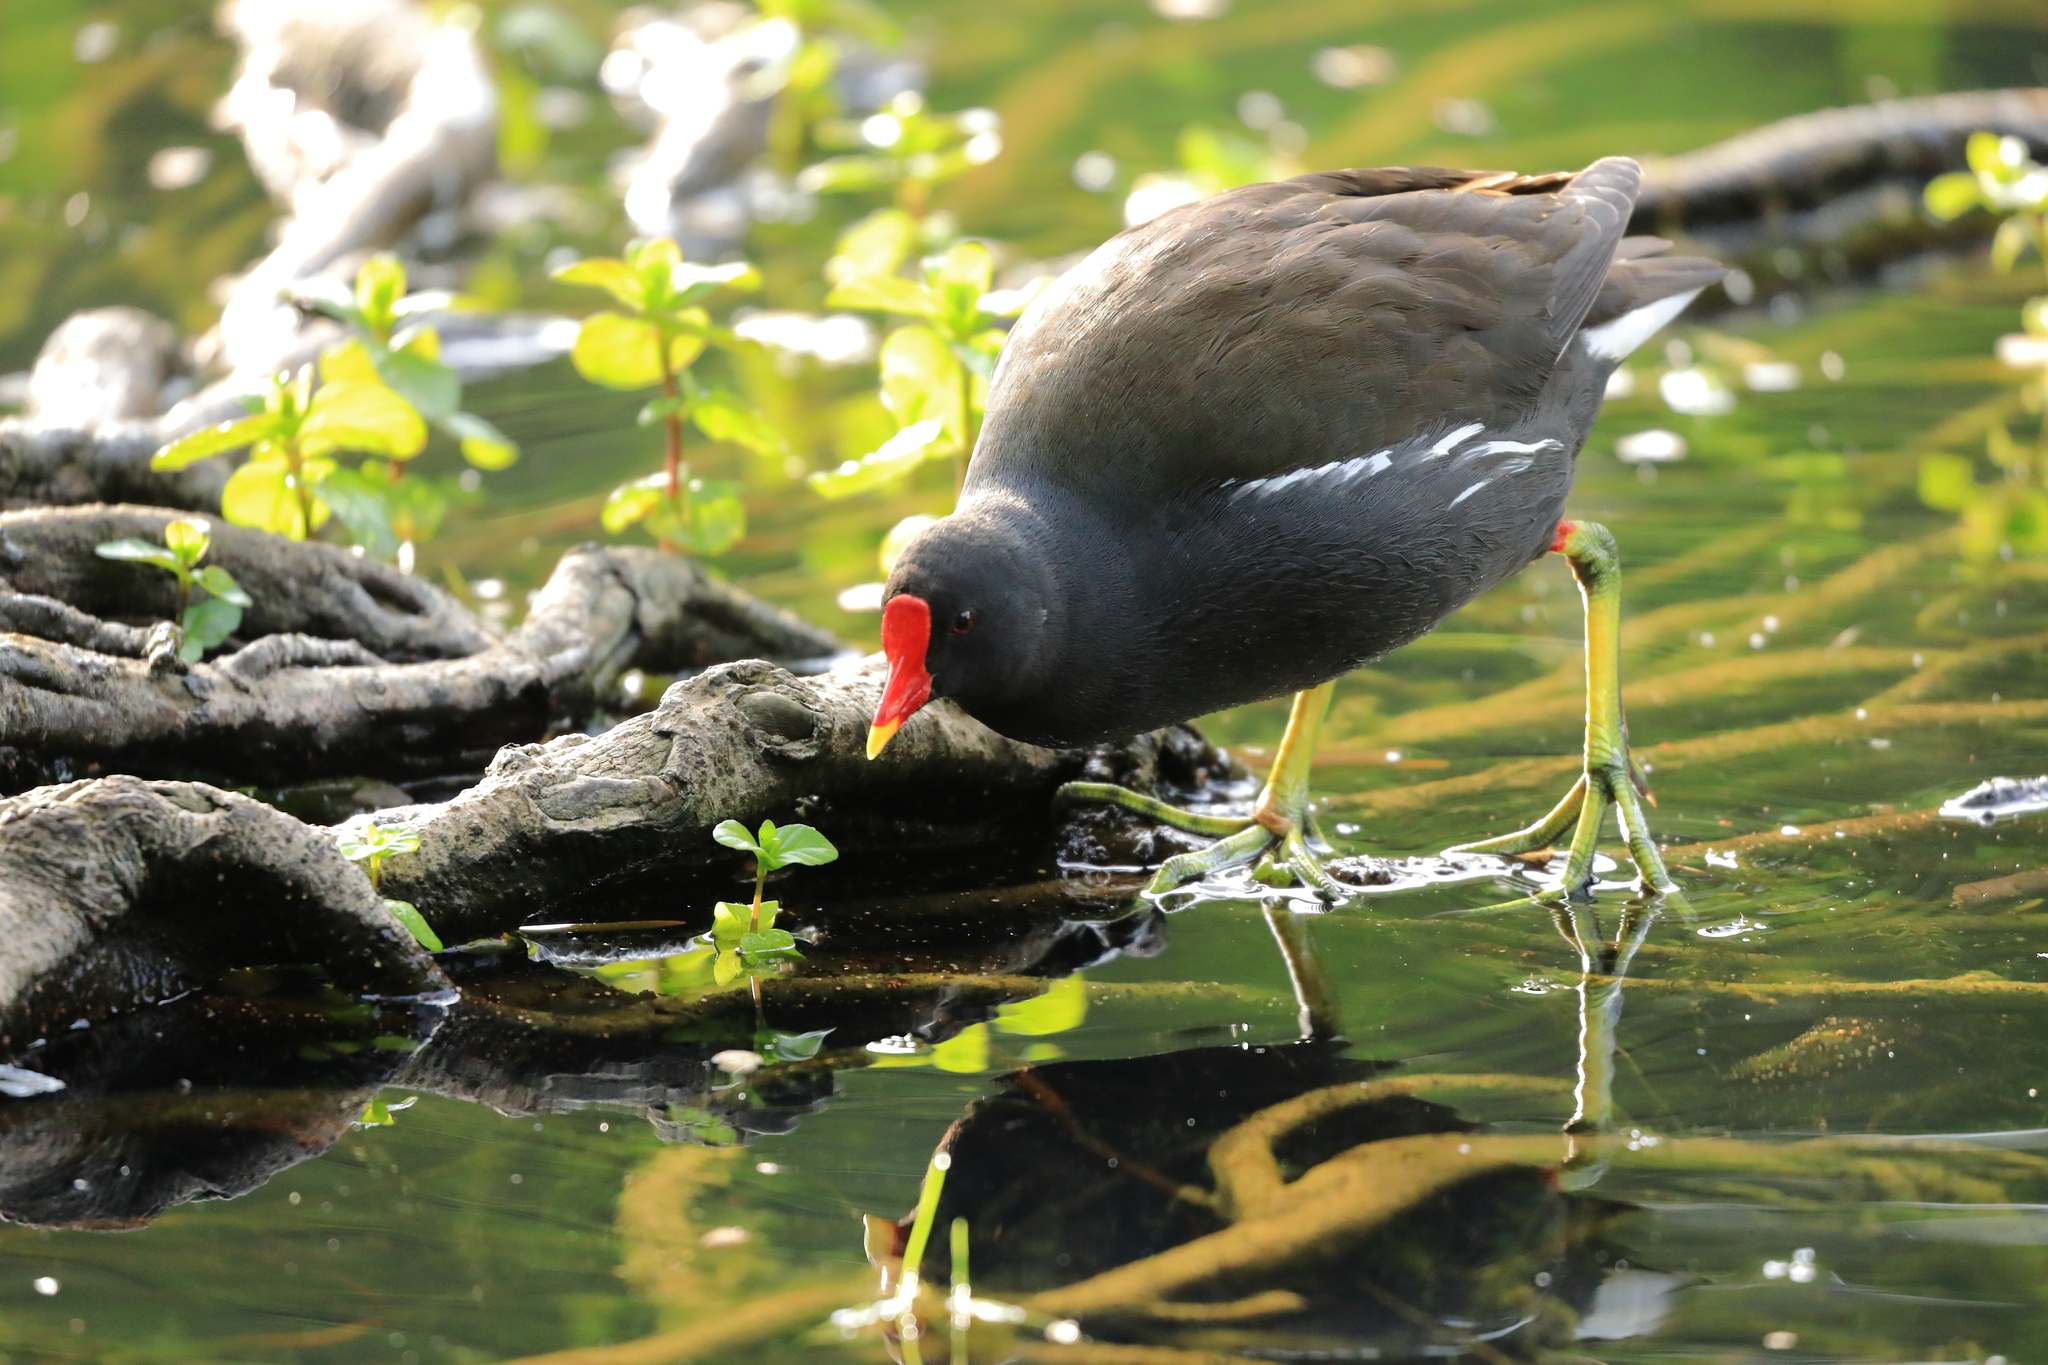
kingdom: Animalia
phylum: Chordata
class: Aves
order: Gruiformes
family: Rallidae
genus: Gallinula
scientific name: Gallinula chloropus
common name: Common moorhen
